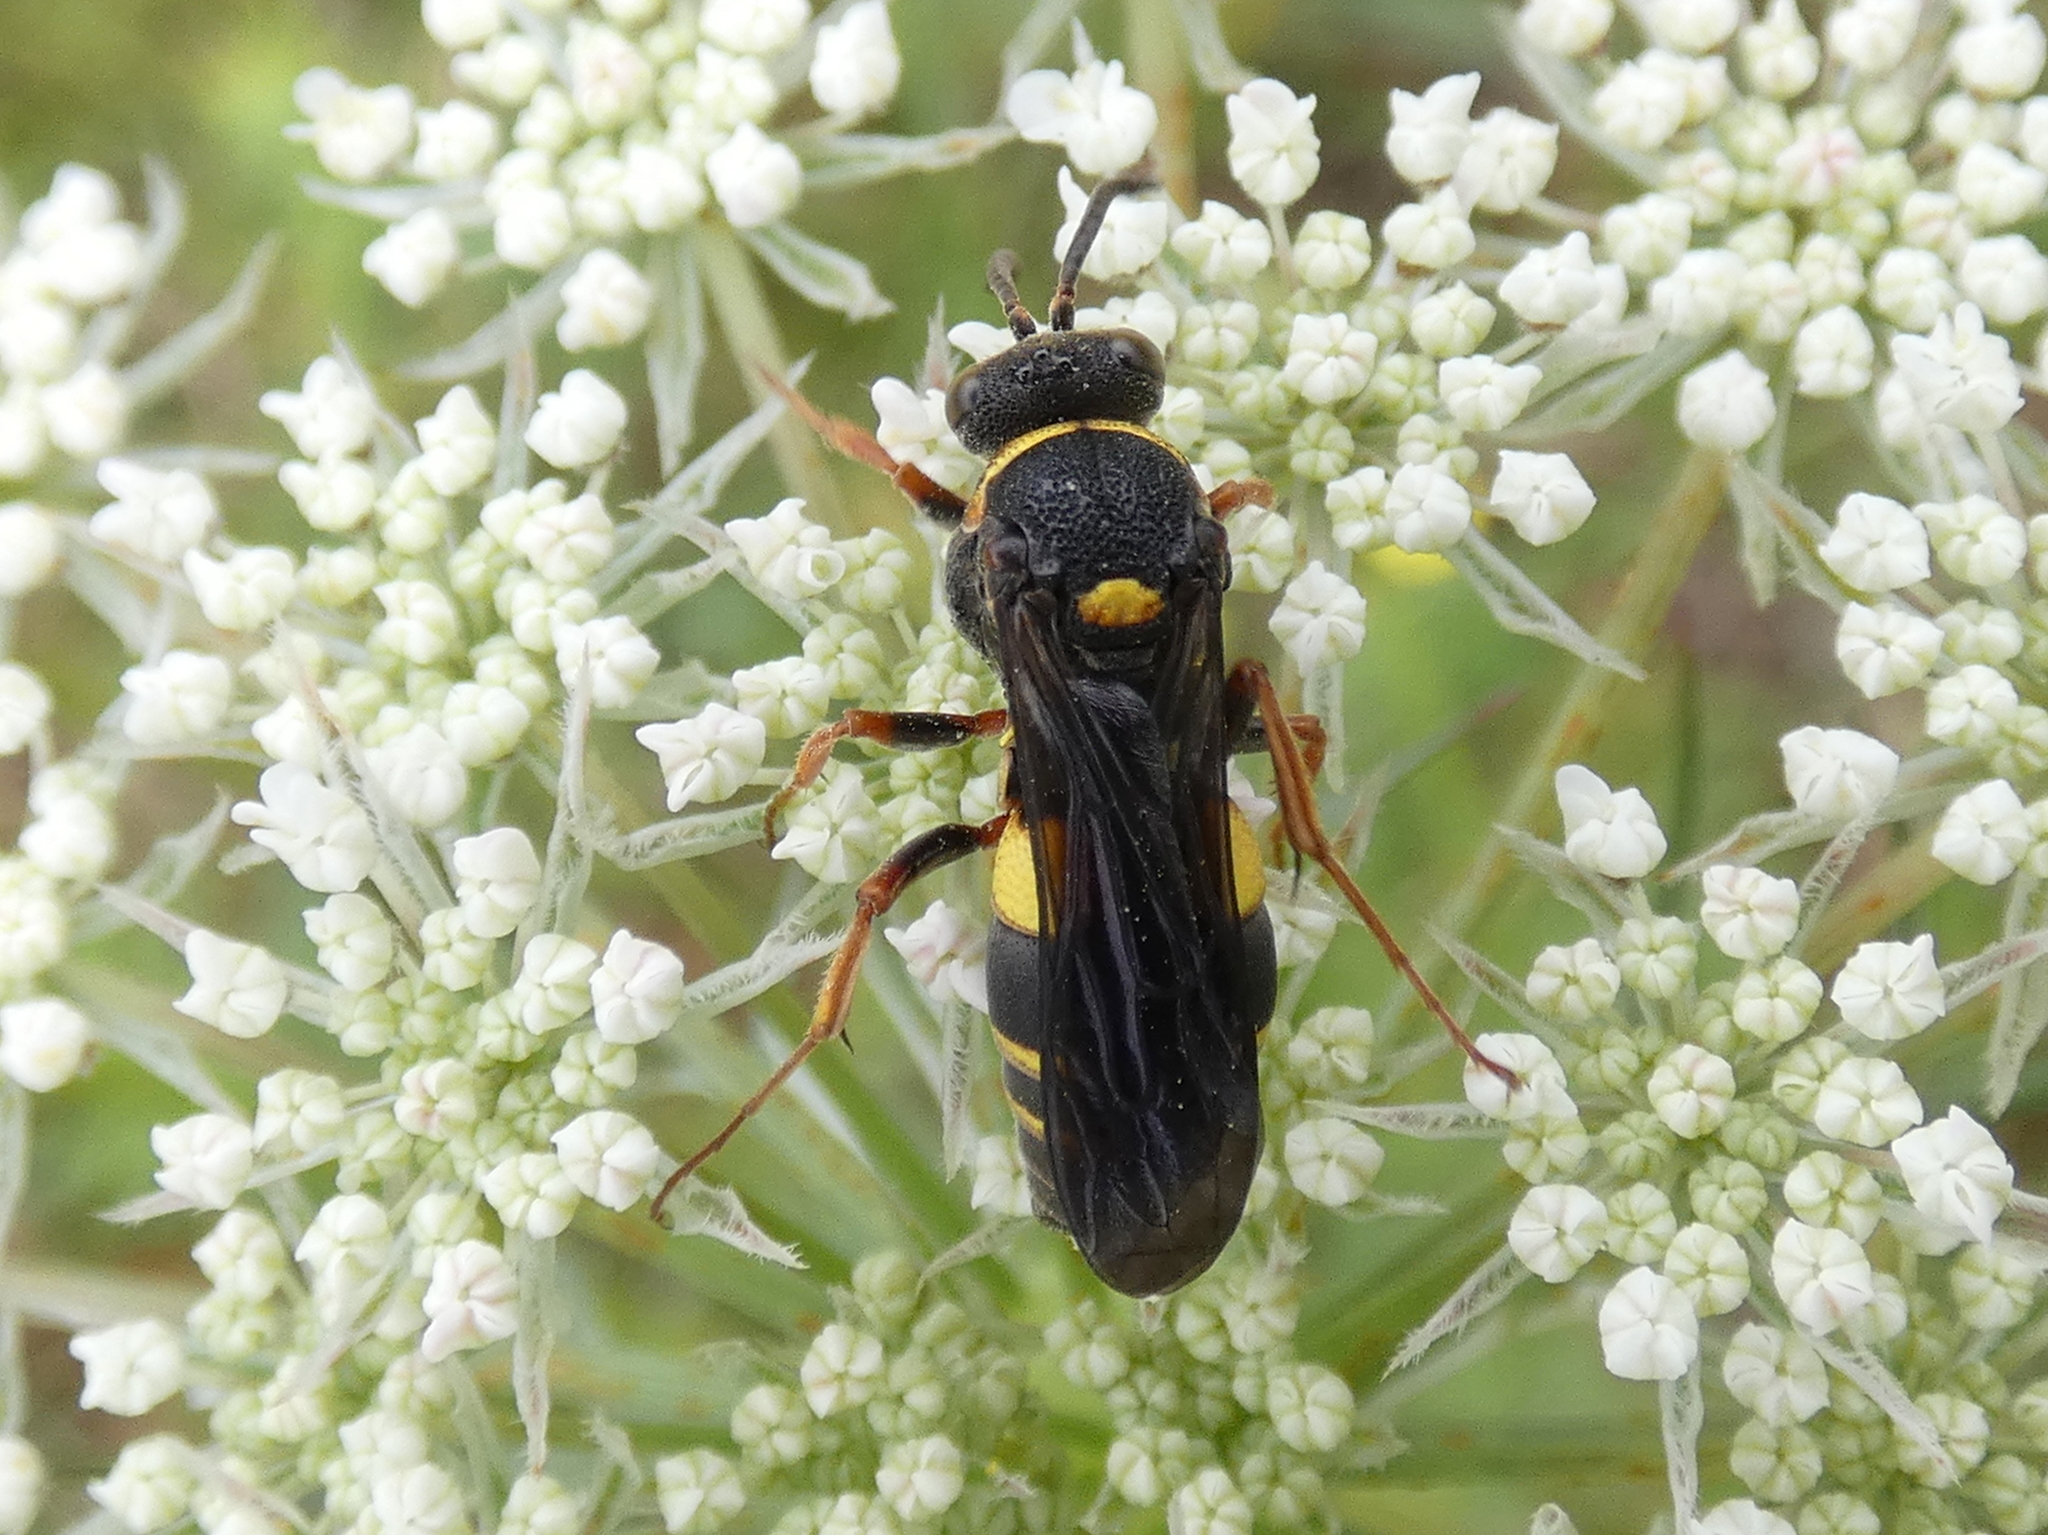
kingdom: Animalia
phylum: Arthropoda
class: Insecta
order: Hymenoptera
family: Crabronidae
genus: Nysson
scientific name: Nysson plagiatus
